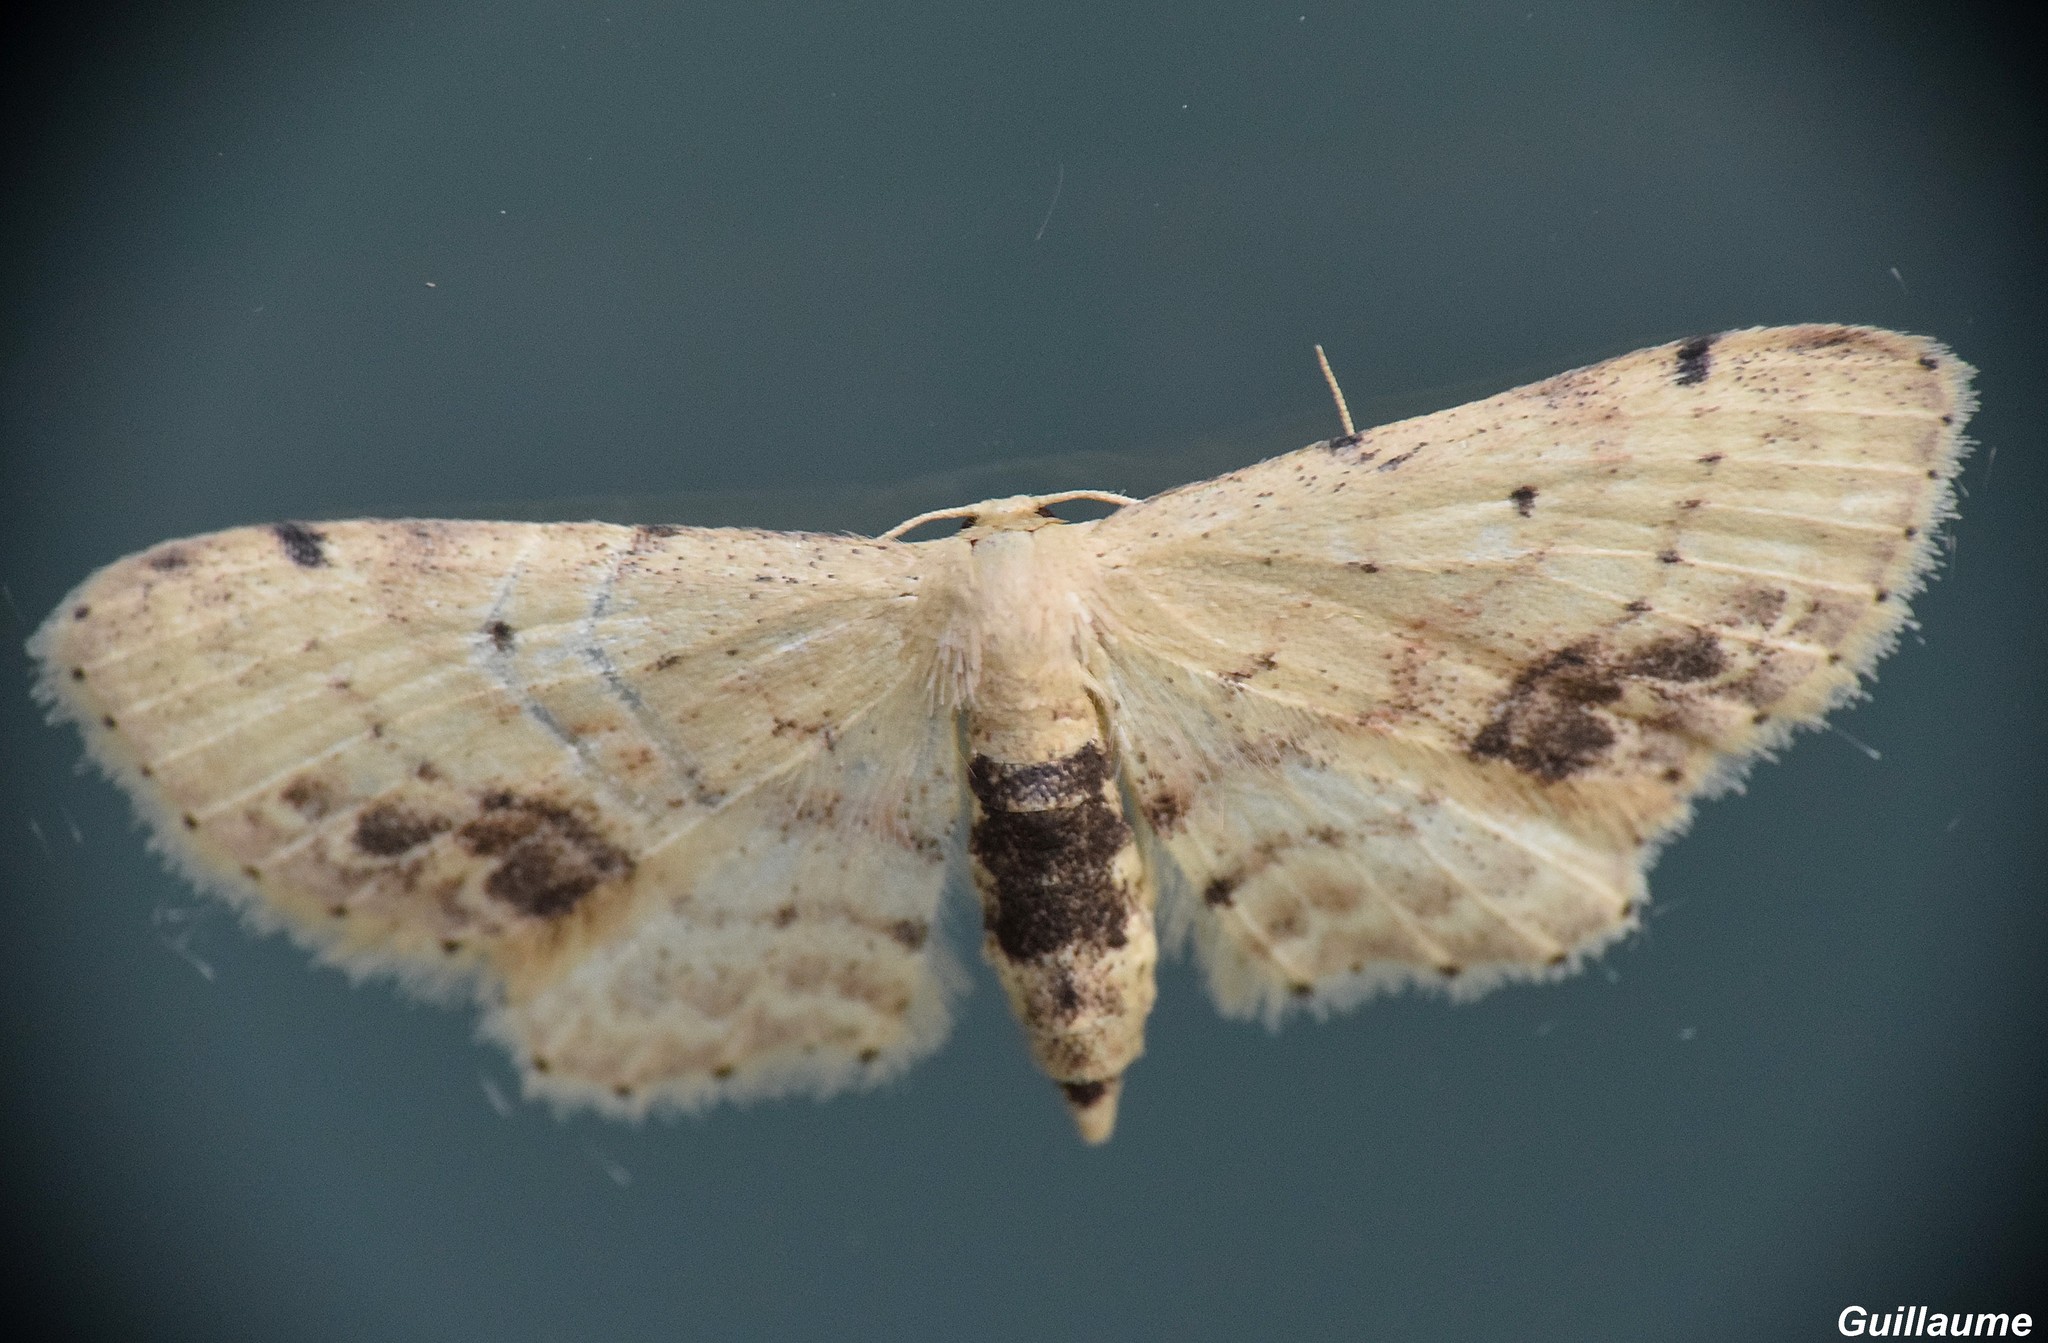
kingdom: Animalia
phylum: Arthropoda
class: Insecta
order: Lepidoptera
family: Geometridae
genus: Idaea
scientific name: Idaea dimidiata
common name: Single-dotted wave
